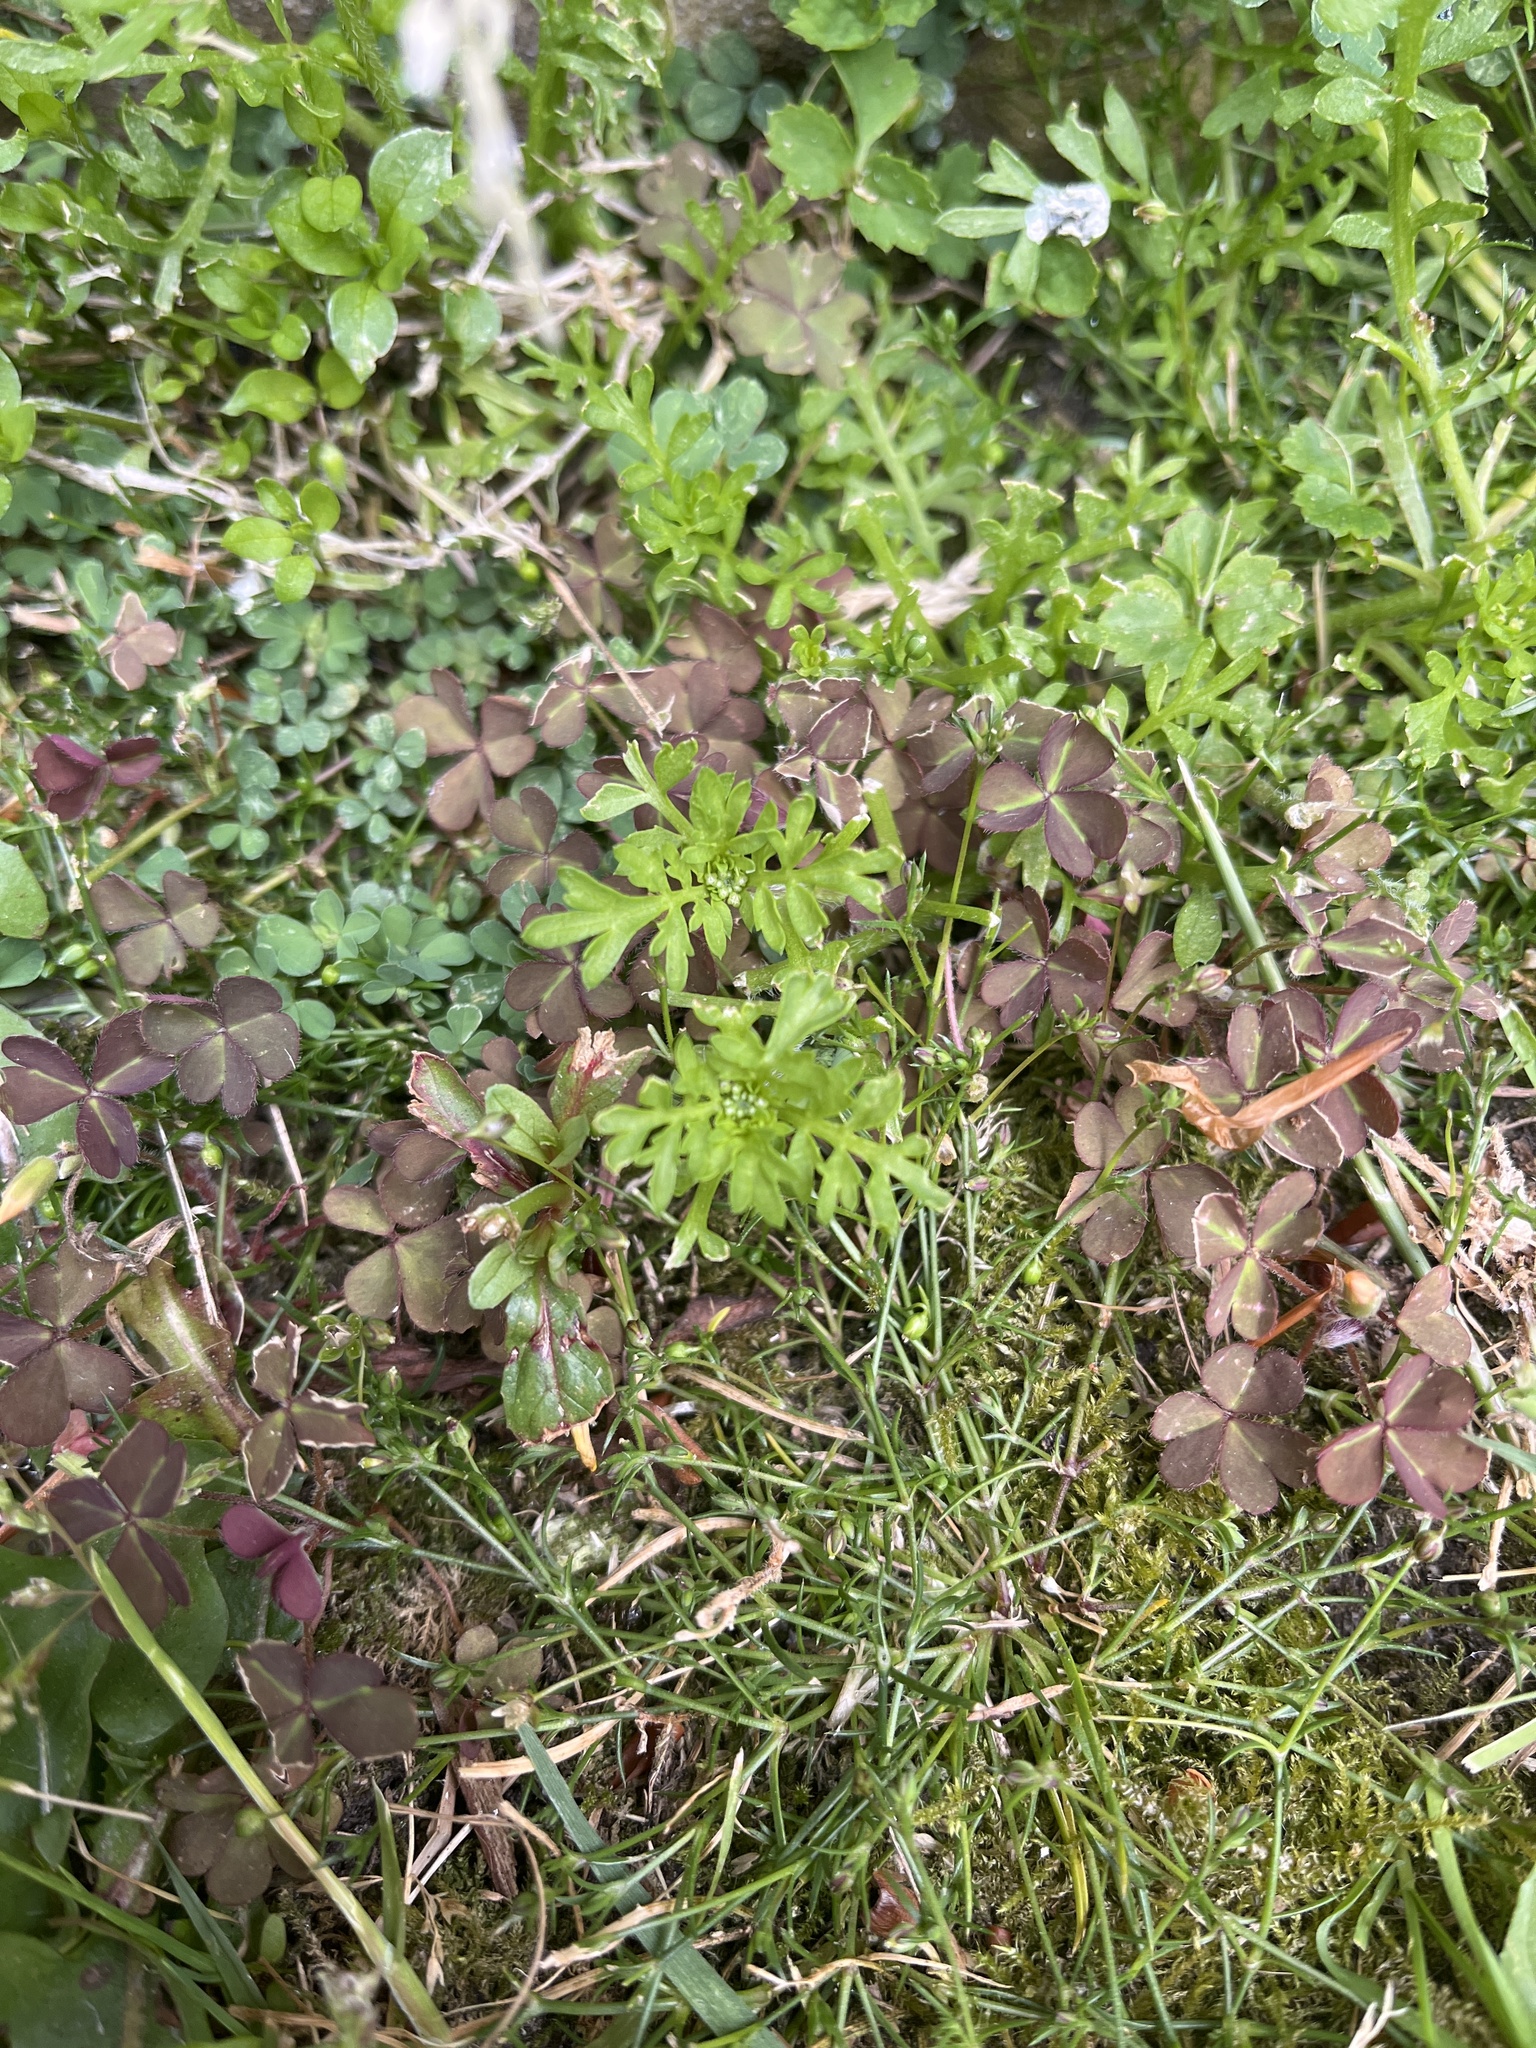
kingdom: Plantae
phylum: Tracheophyta
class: Magnoliopsida
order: Brassicales
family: Brassicaceae
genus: Lepidium
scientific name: Lepidium didymum
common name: Lesser swinecress
